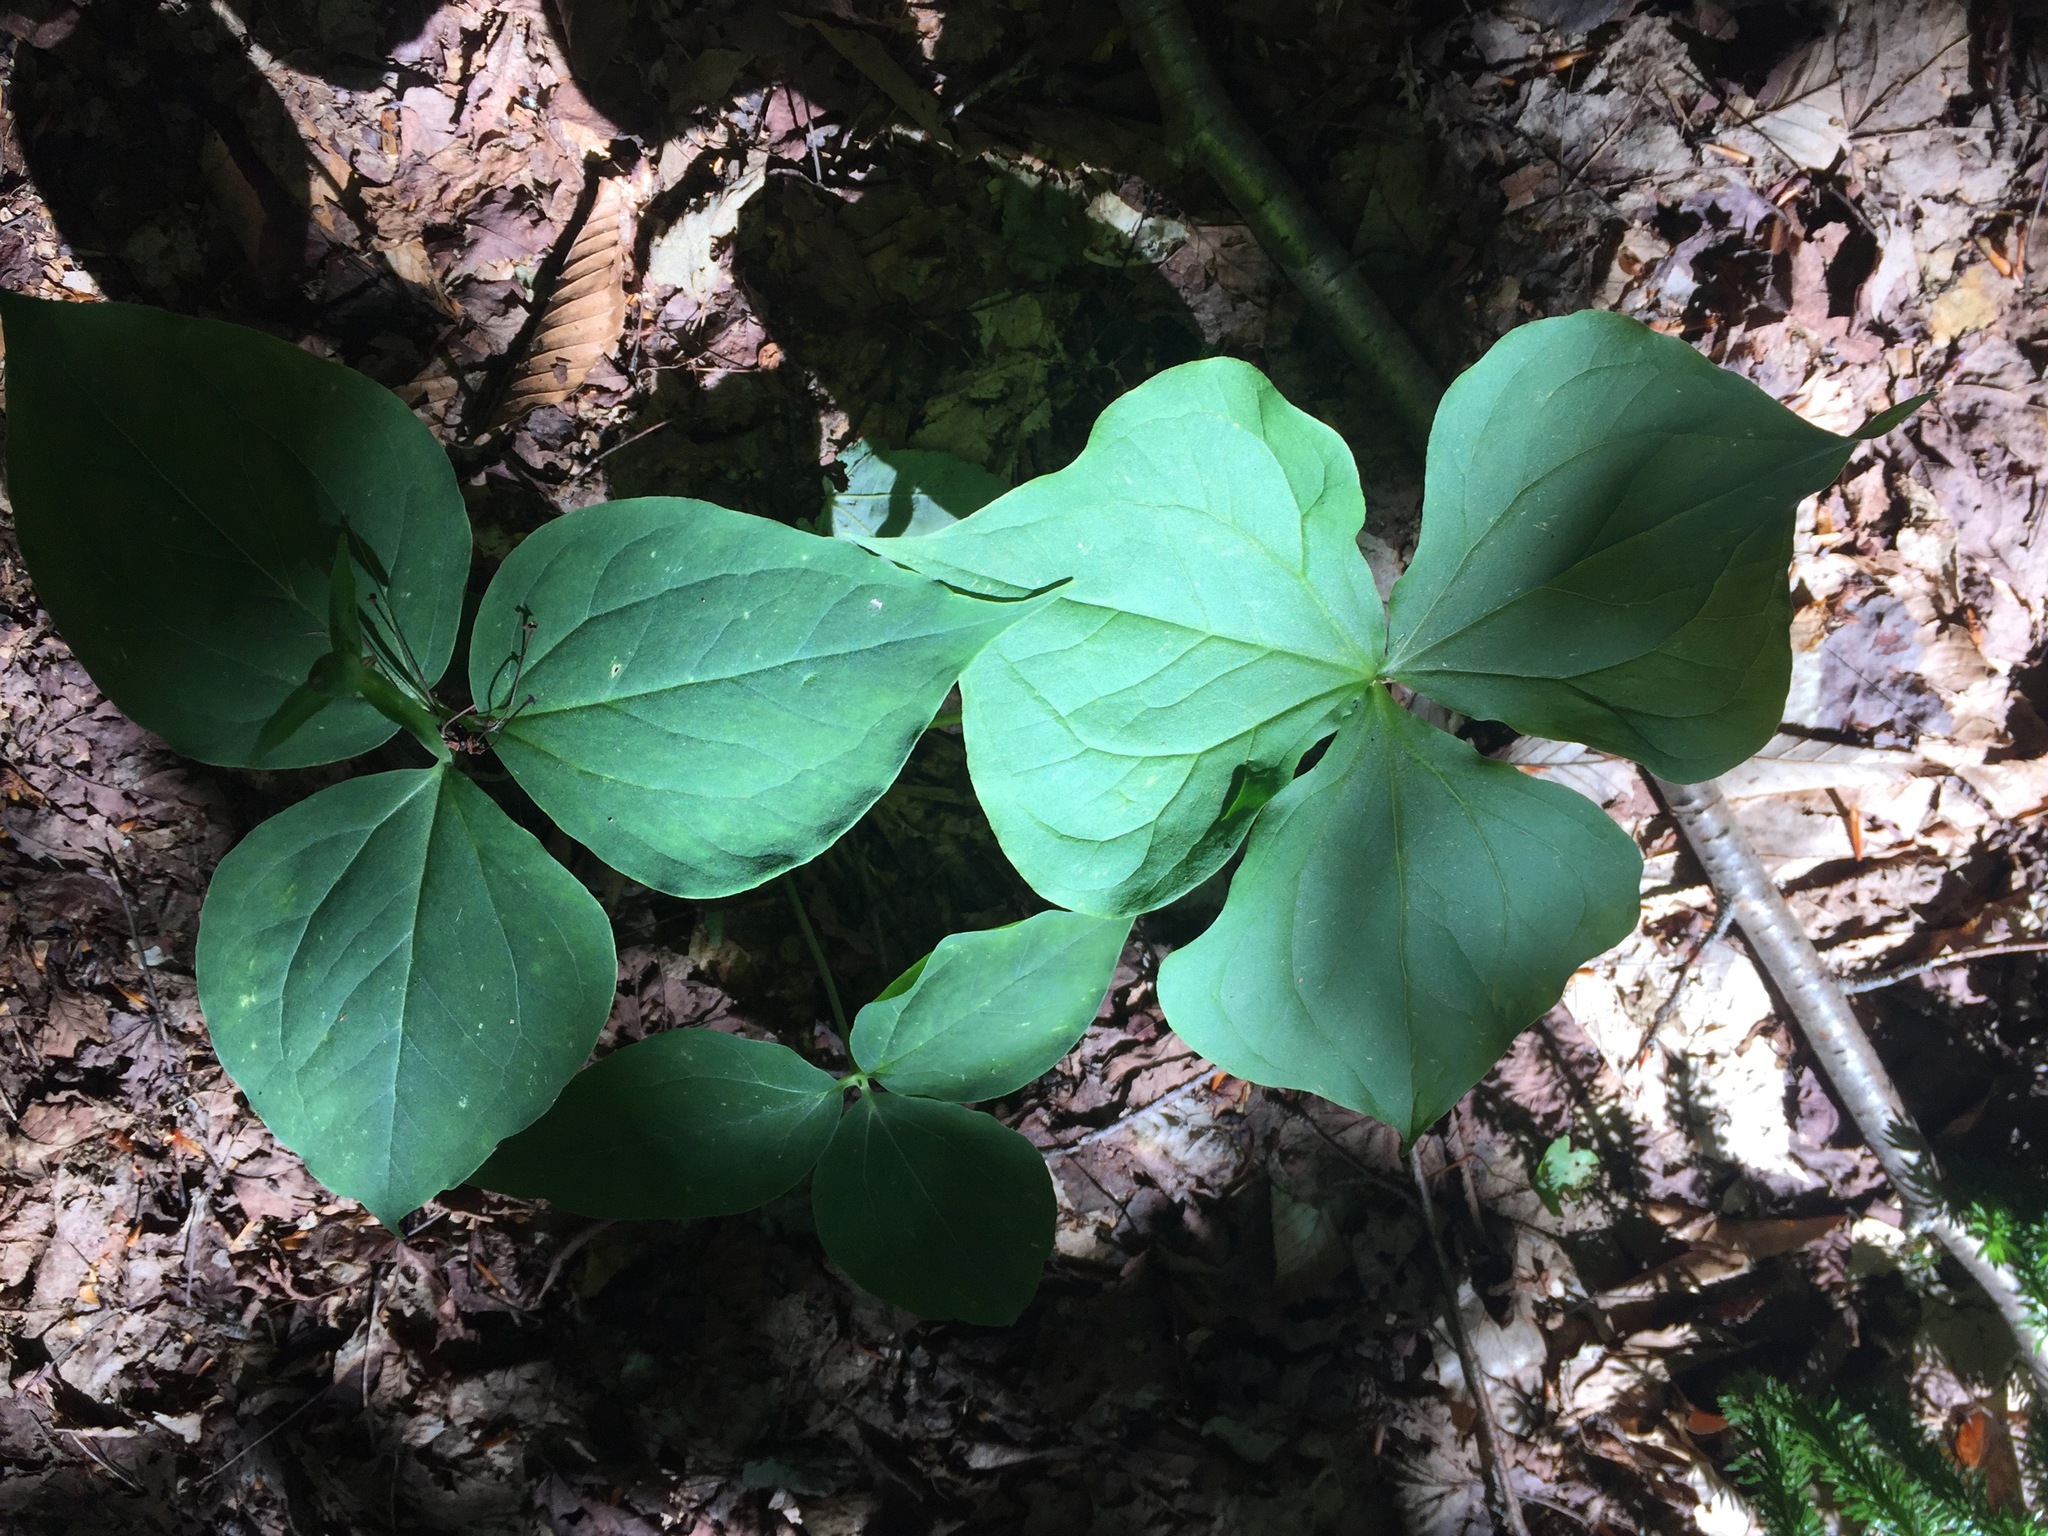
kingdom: Plantae
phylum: Tracheophyta
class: Liliopsida
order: Liliales
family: Melanthiaceae
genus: Trillium
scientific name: Trillium erectum
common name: Purple trillium
